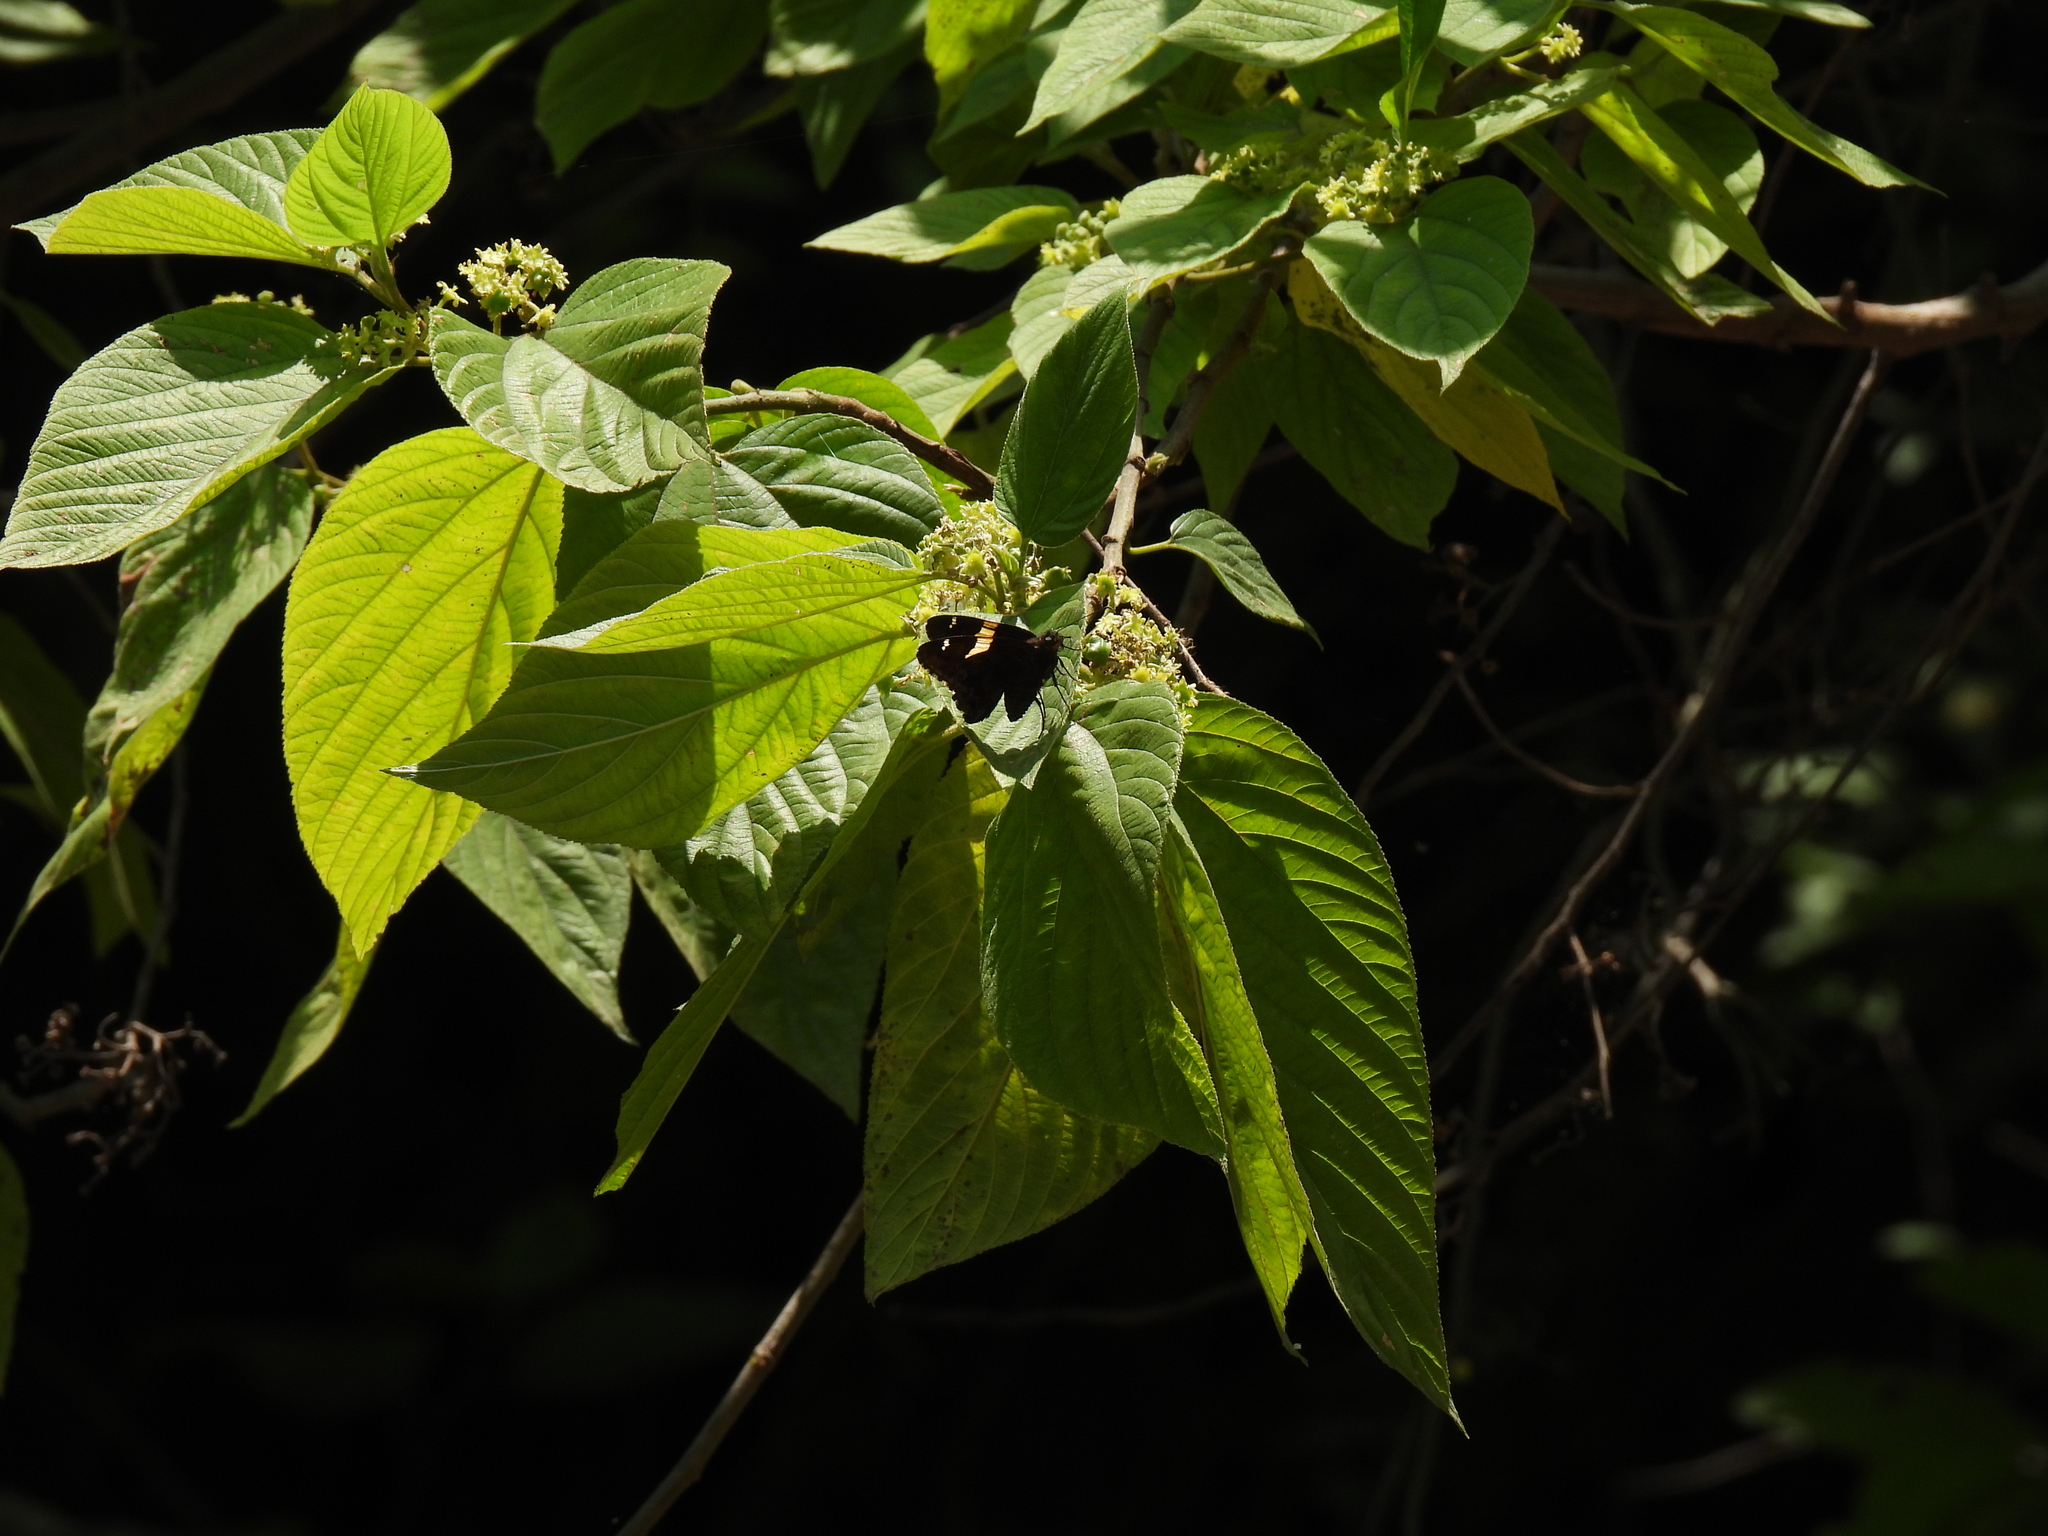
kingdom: Animalia
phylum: Arthropoda
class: Arachnida
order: Scorpiones
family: Bothriuridae
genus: Telegonus
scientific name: Telegonus cellus
